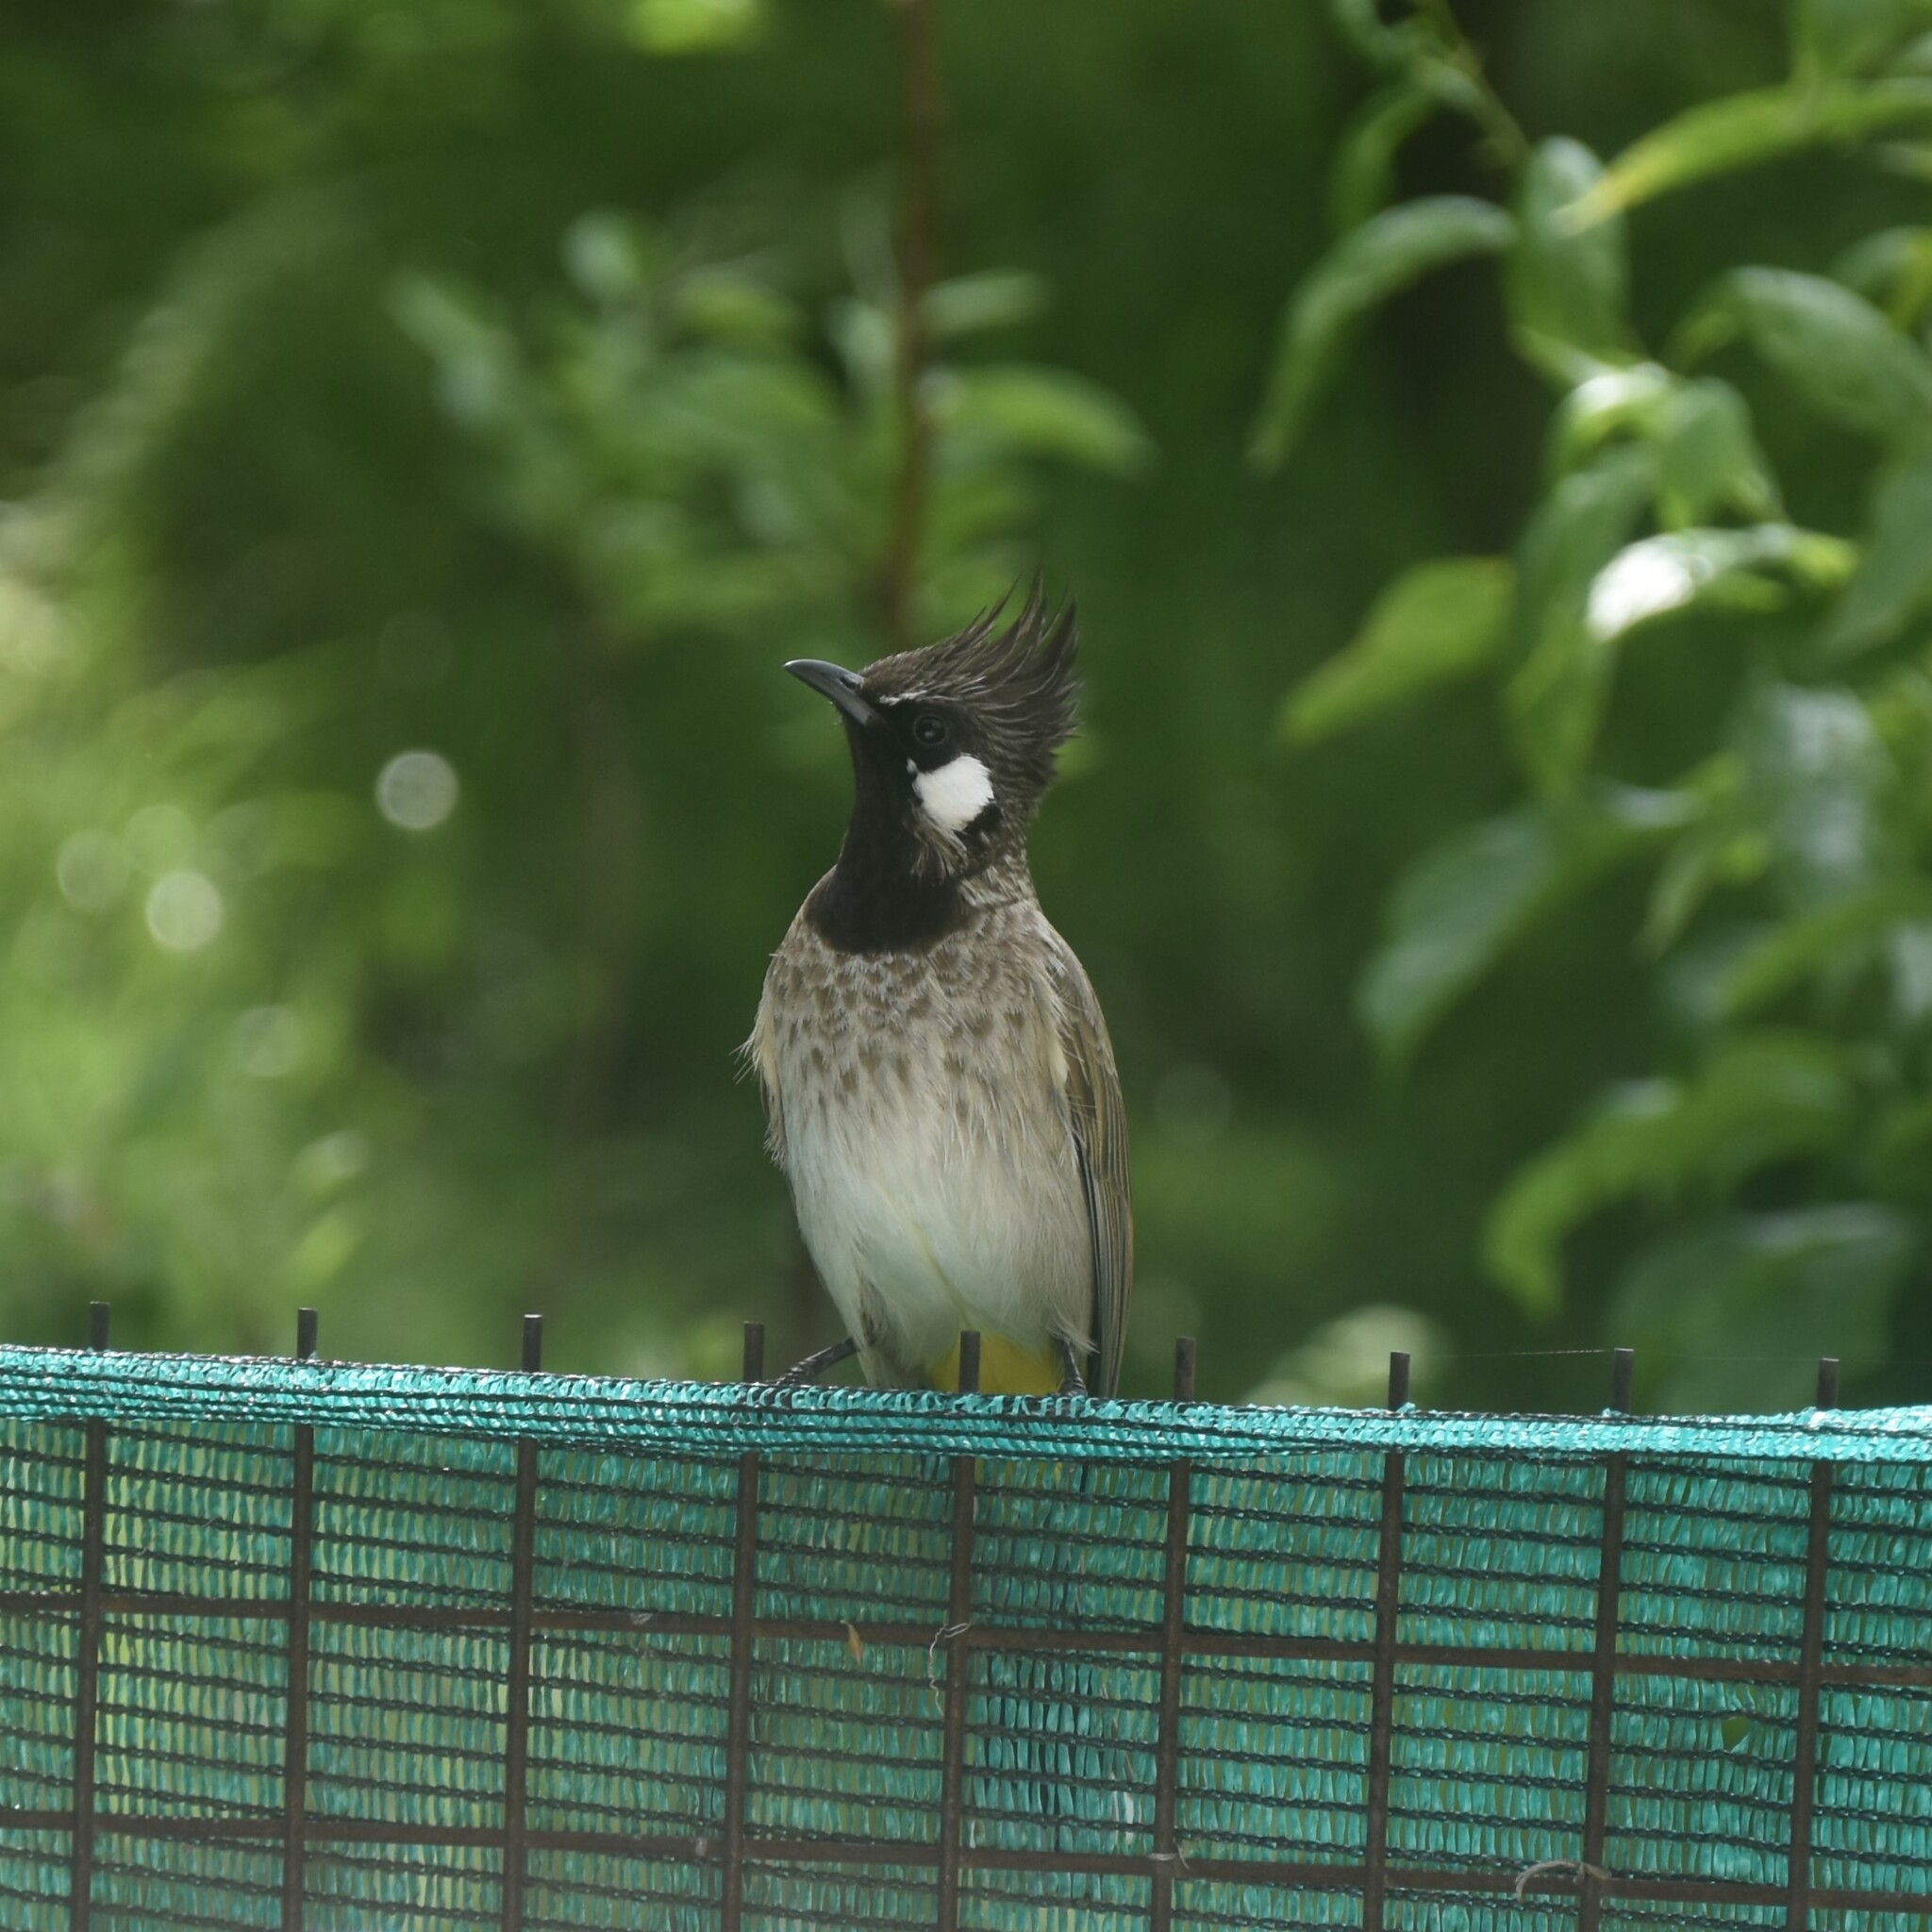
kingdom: Animalia
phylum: Chordata
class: Aves
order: Passeriformes
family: Pycnonotidae
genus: Pycnonotus
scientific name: Pycnonotus leucogenys
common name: Himalayan bulbul
